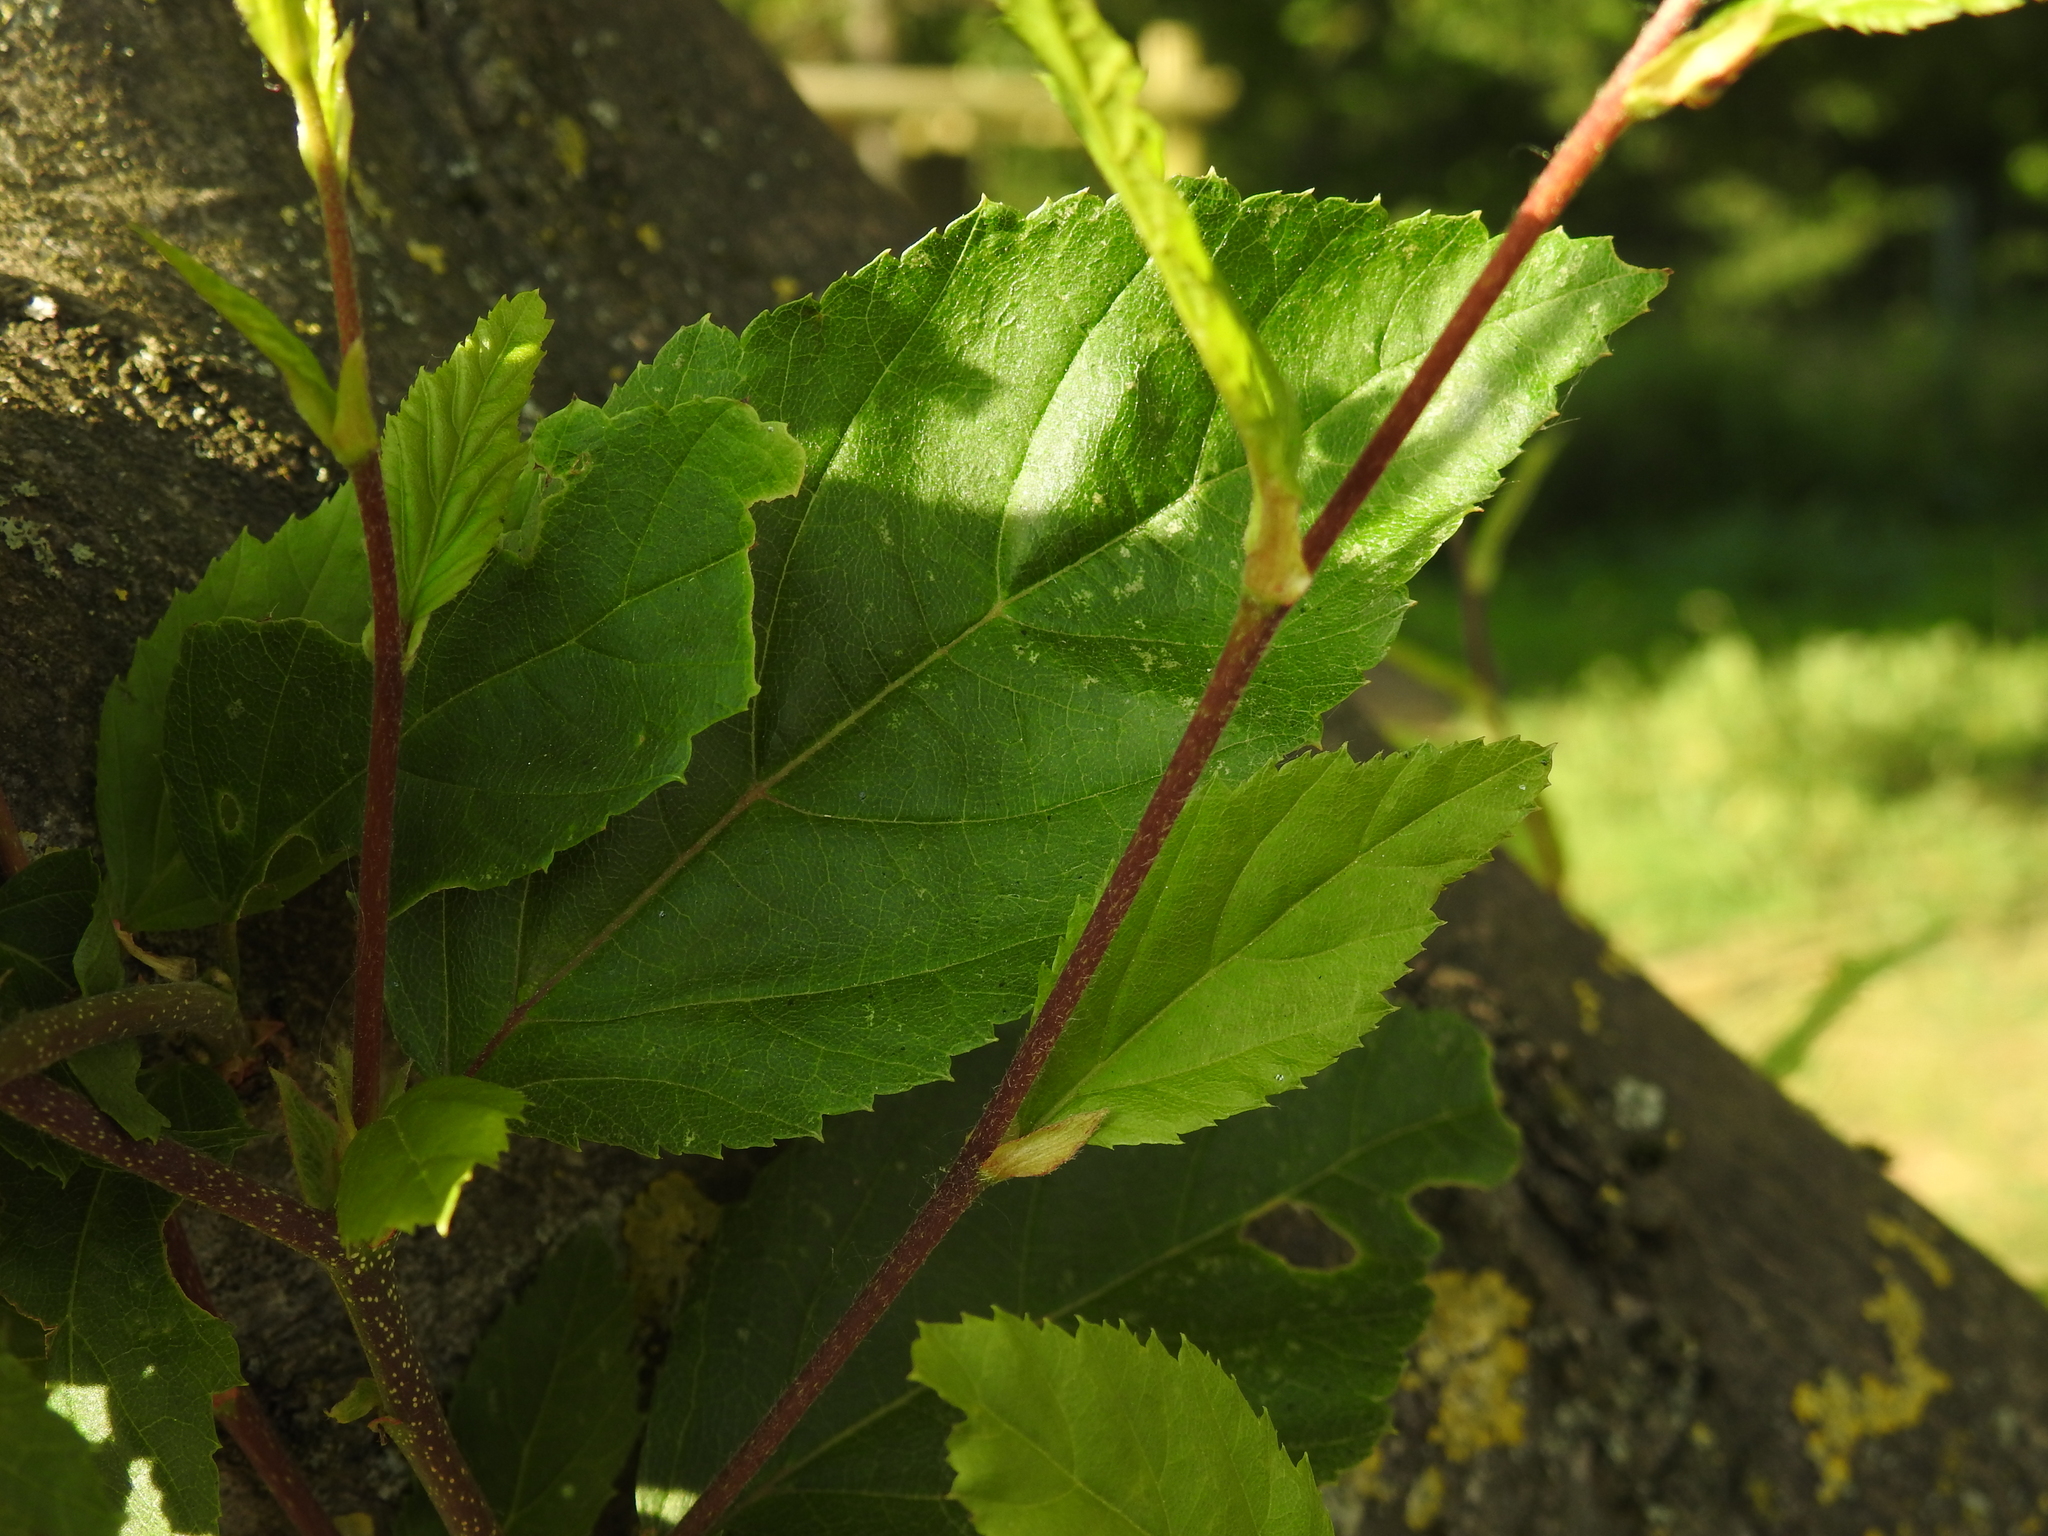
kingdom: Plantae
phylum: Tracheophyta
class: Magnoliopsida
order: Fagales
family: Betulaceae
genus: Carpinus
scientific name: Carpinus betulus
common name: Hornbeam
